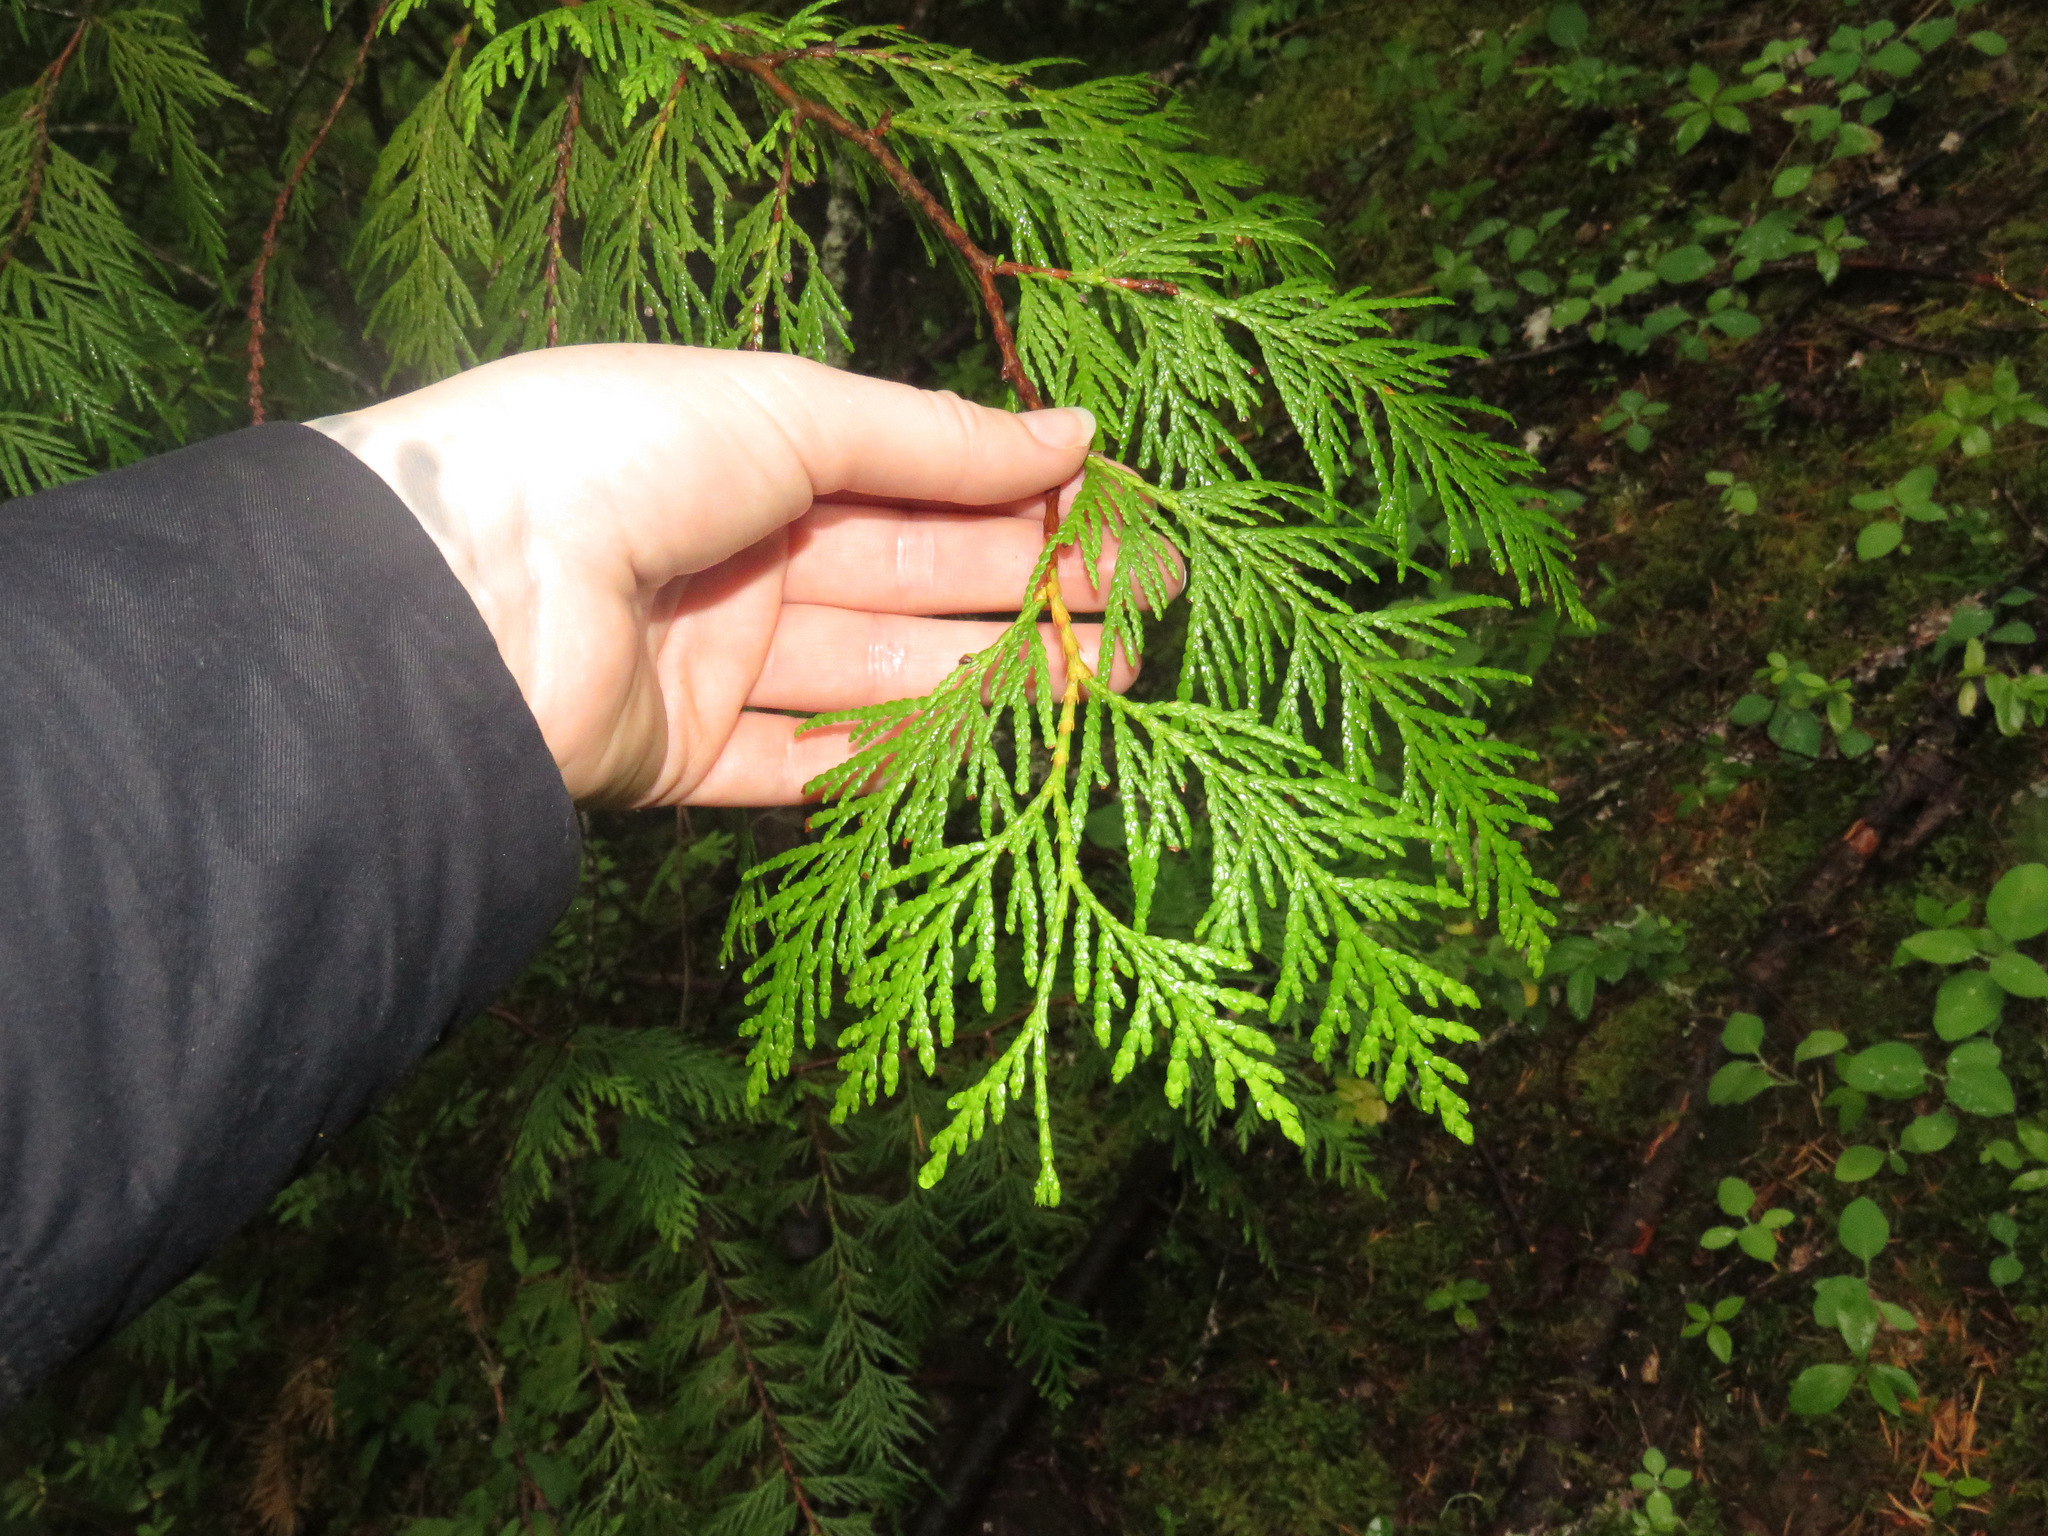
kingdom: Plantae
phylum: Tracheophyta
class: Pinopsida
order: Pinales
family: Cupressaceae
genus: Thuja
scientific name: Thuja plicata
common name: Western red-cedar
